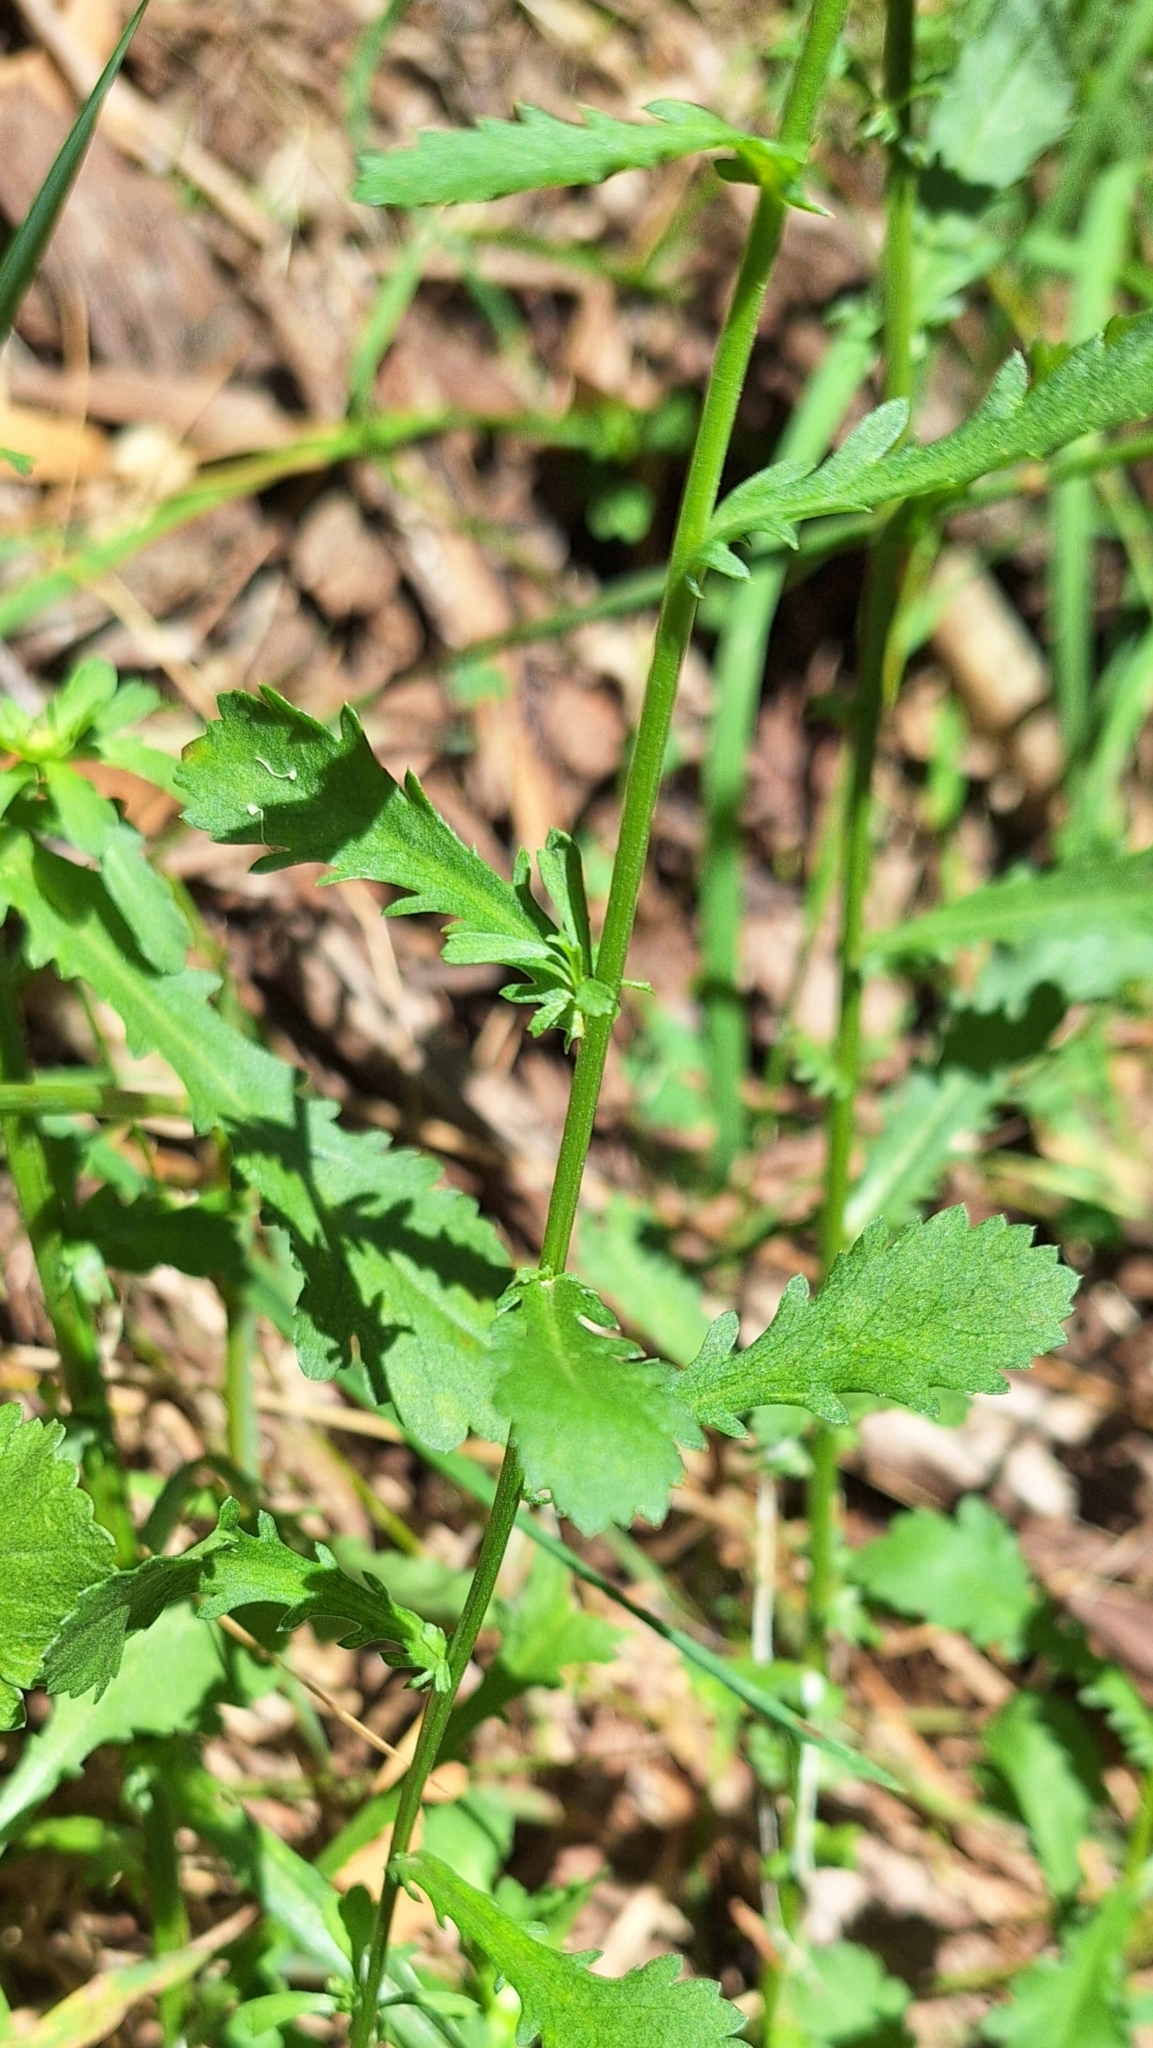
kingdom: Plantae
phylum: Tracheophyta
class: Magnoliopsida
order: Asterales
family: Asteraceae
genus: Leucanthemum
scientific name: Leucanthemum vulgare
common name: Oxeye daisy
